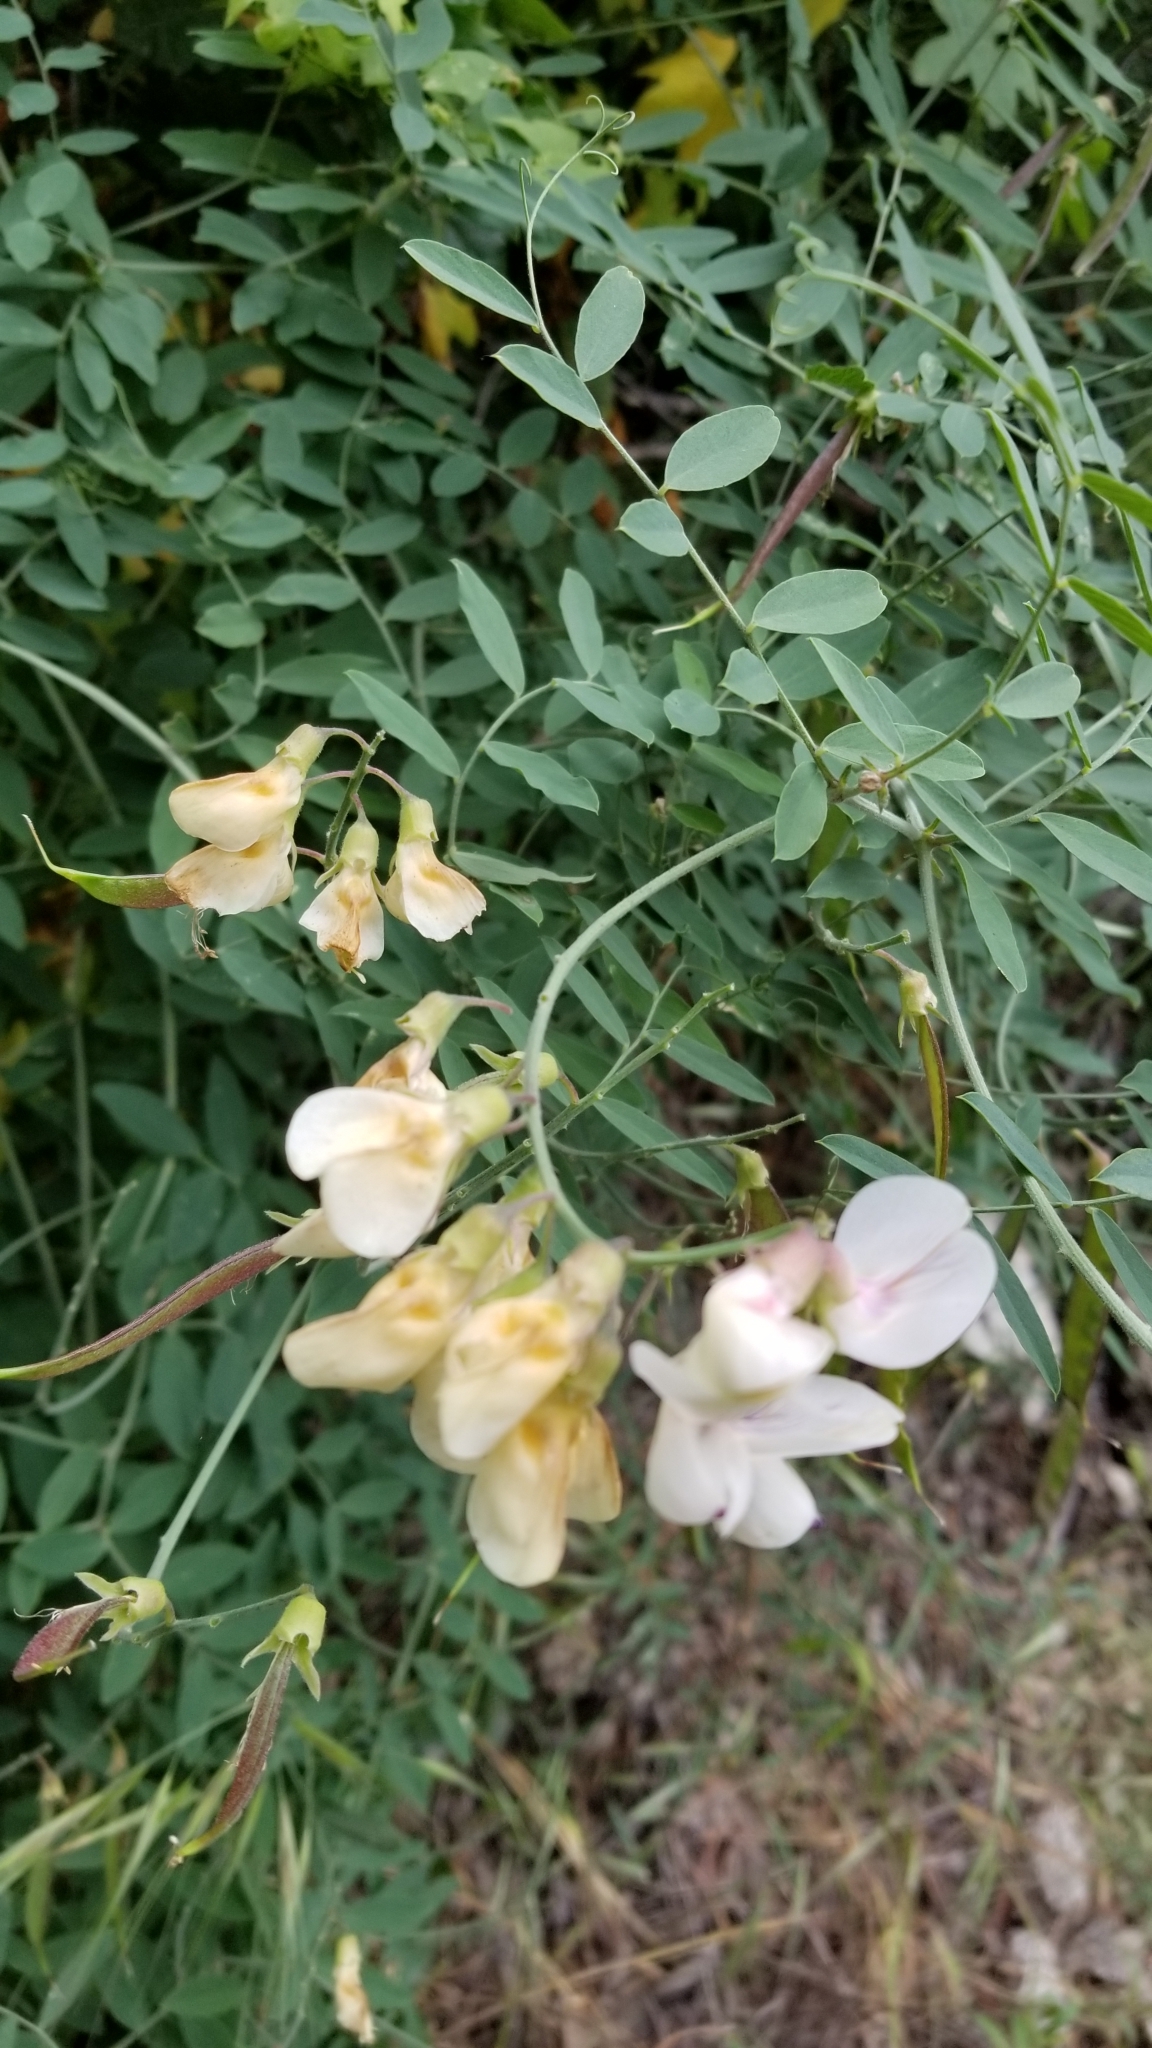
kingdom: Plantae
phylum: Tracheophyta
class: Magnoliopsida
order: Fabales
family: Fabaceae
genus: Lathyrus
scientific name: Lathyrus vestitus
